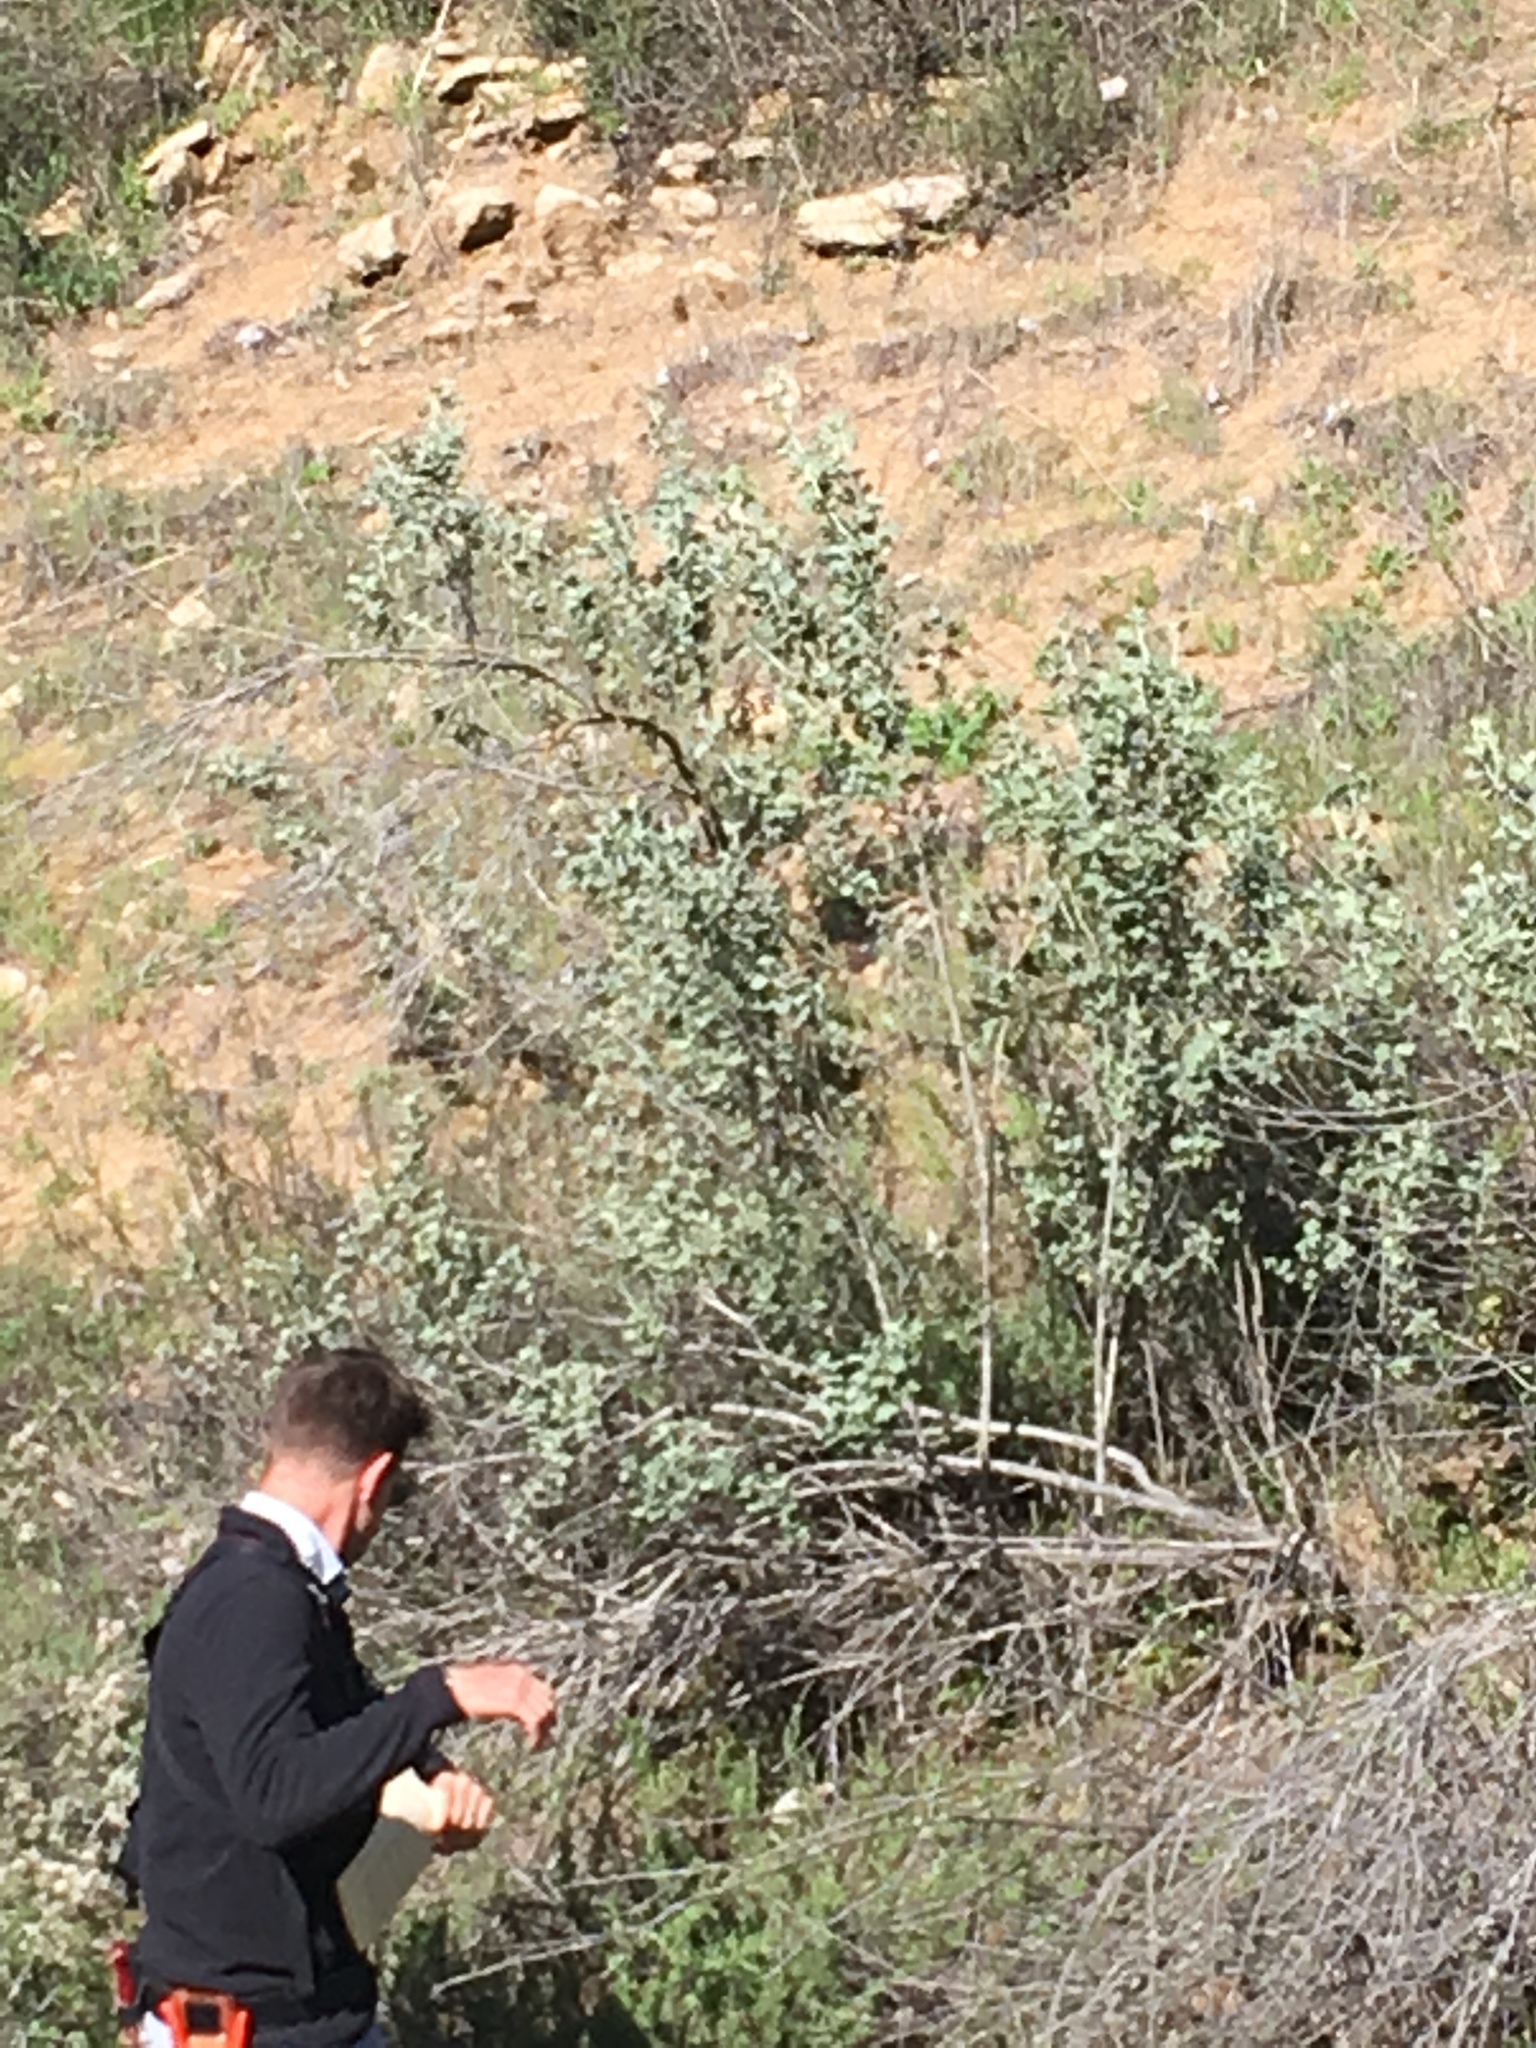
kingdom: Plantae
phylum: Tracheophyta
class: Magnoliopsida
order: Malvales
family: Malvaceae
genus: Malacothamnus
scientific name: Malacothamnus jonesii
